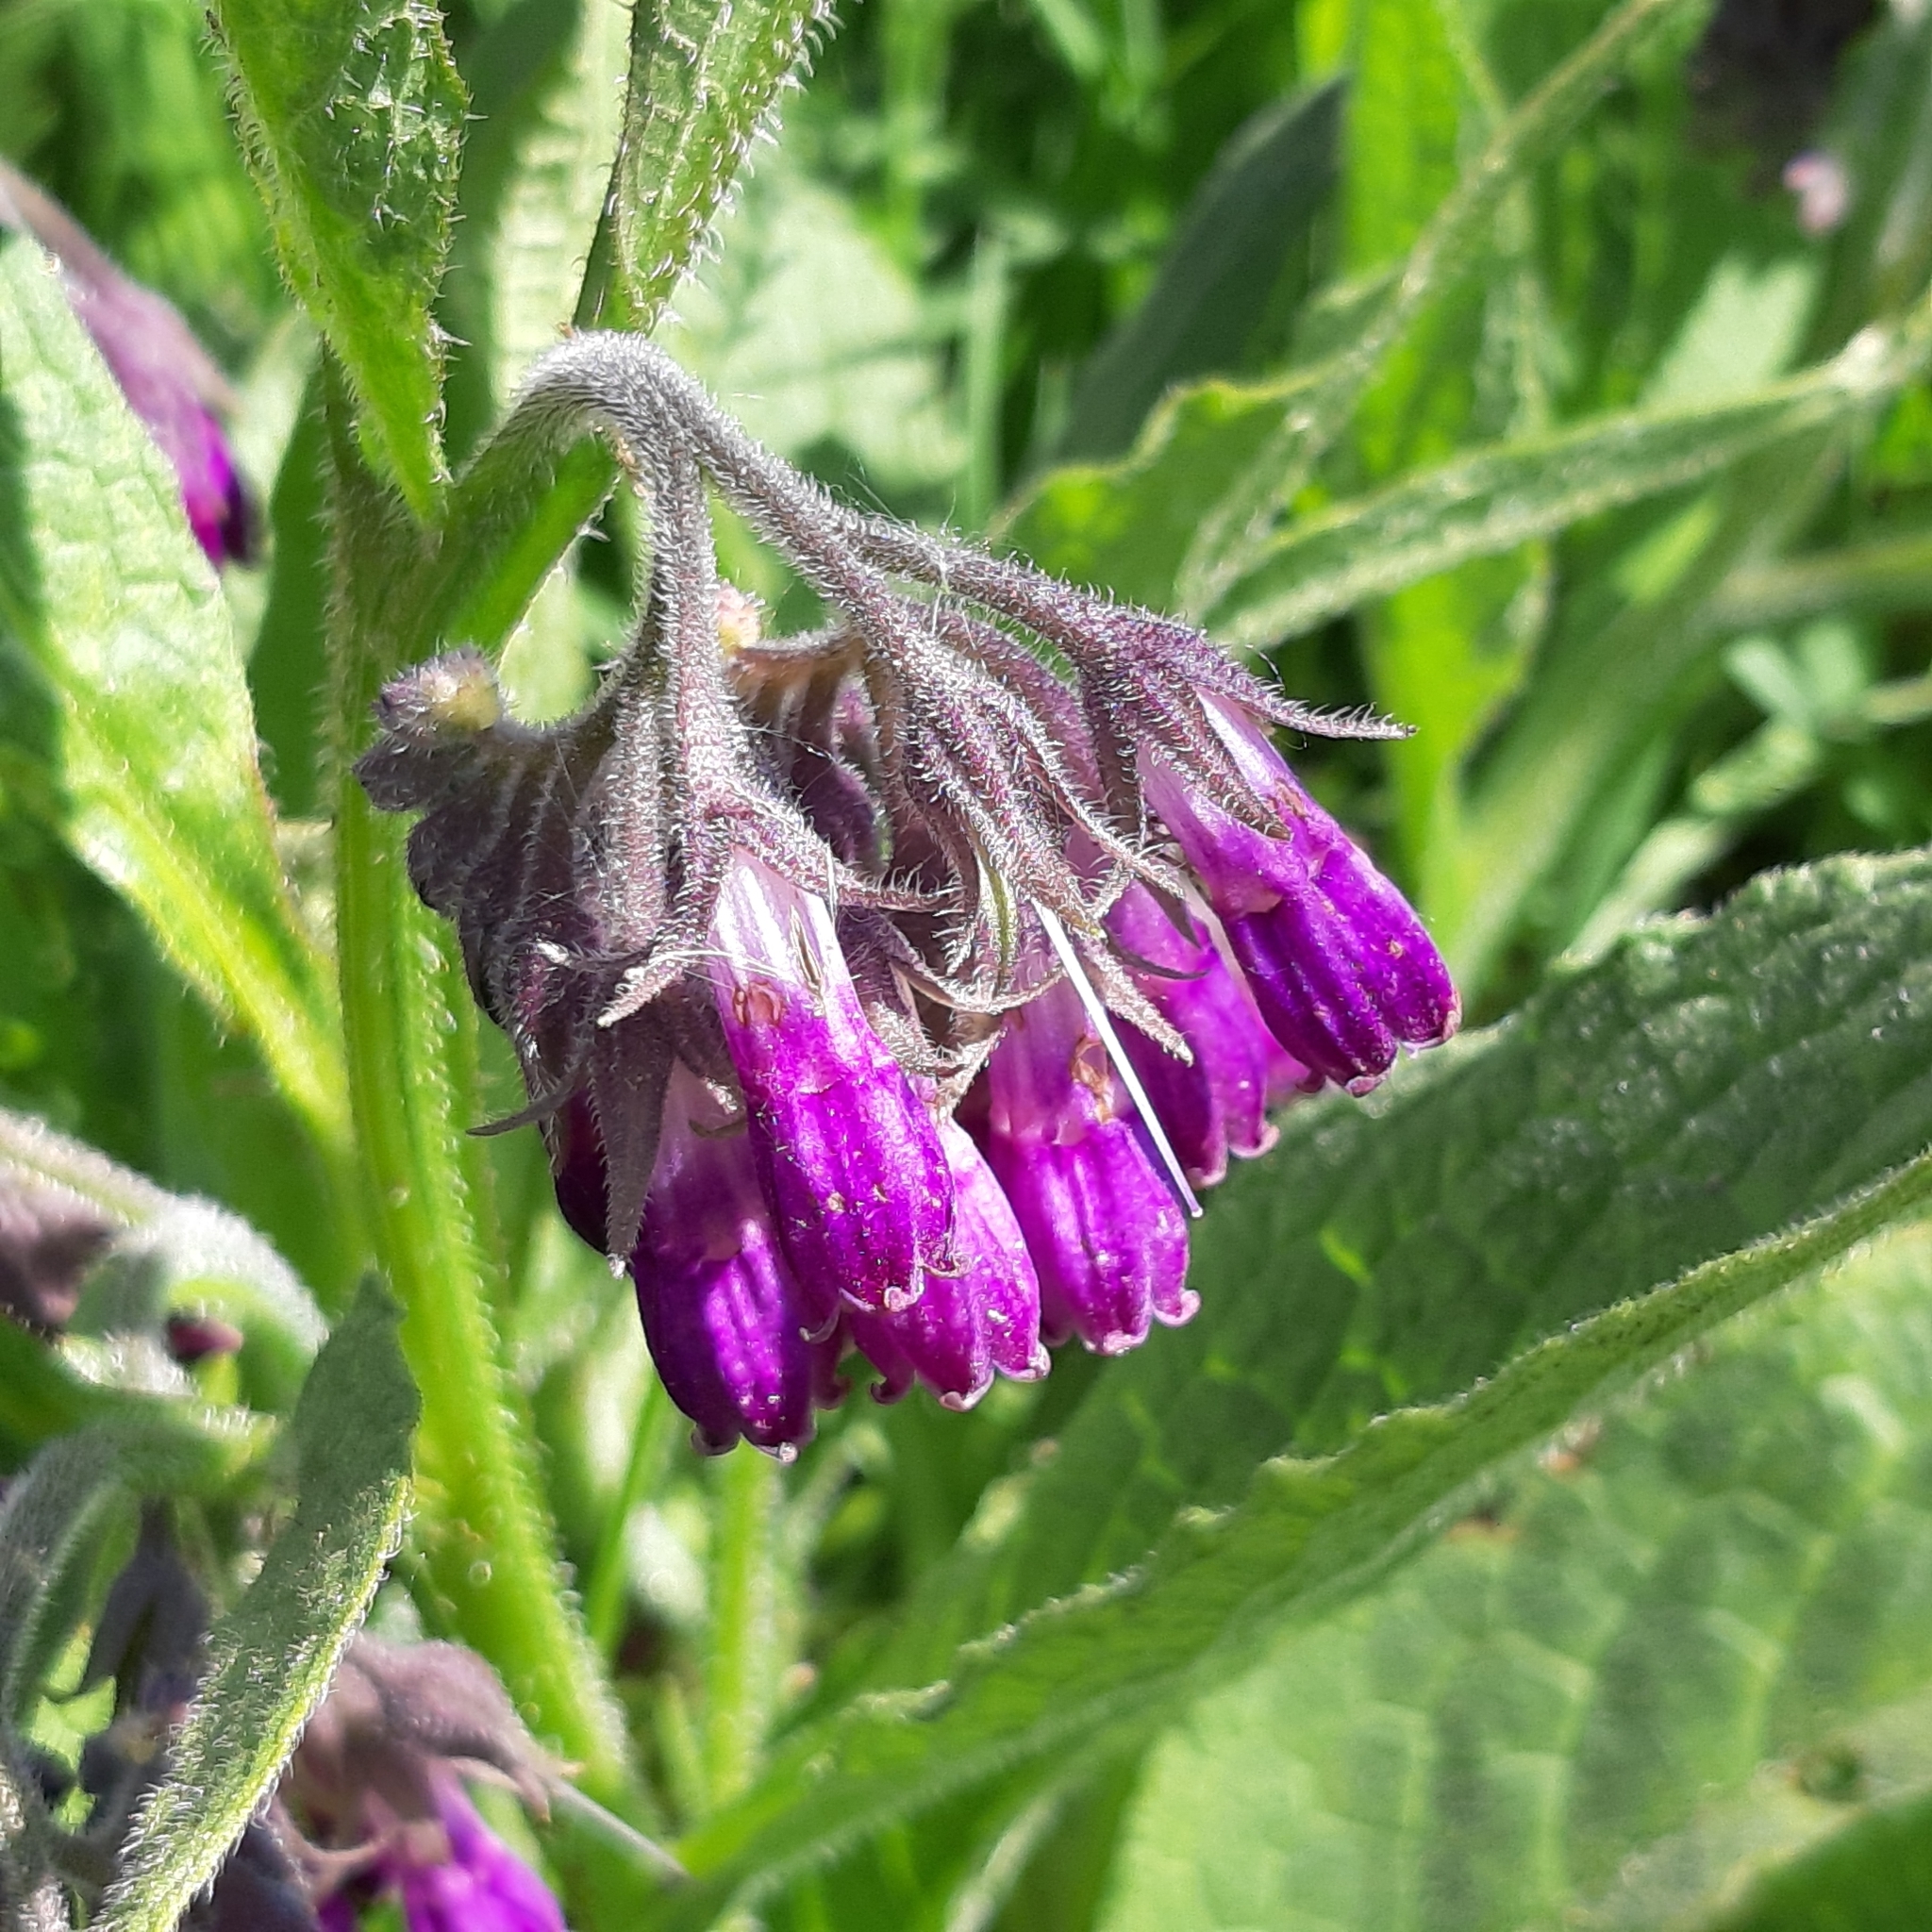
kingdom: Plantae
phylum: Tracheophyta
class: Magnoliopsida
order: Boraginales
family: Boraginaceae
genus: Symphytum
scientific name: Symphytum officinale
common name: Common comfrey
